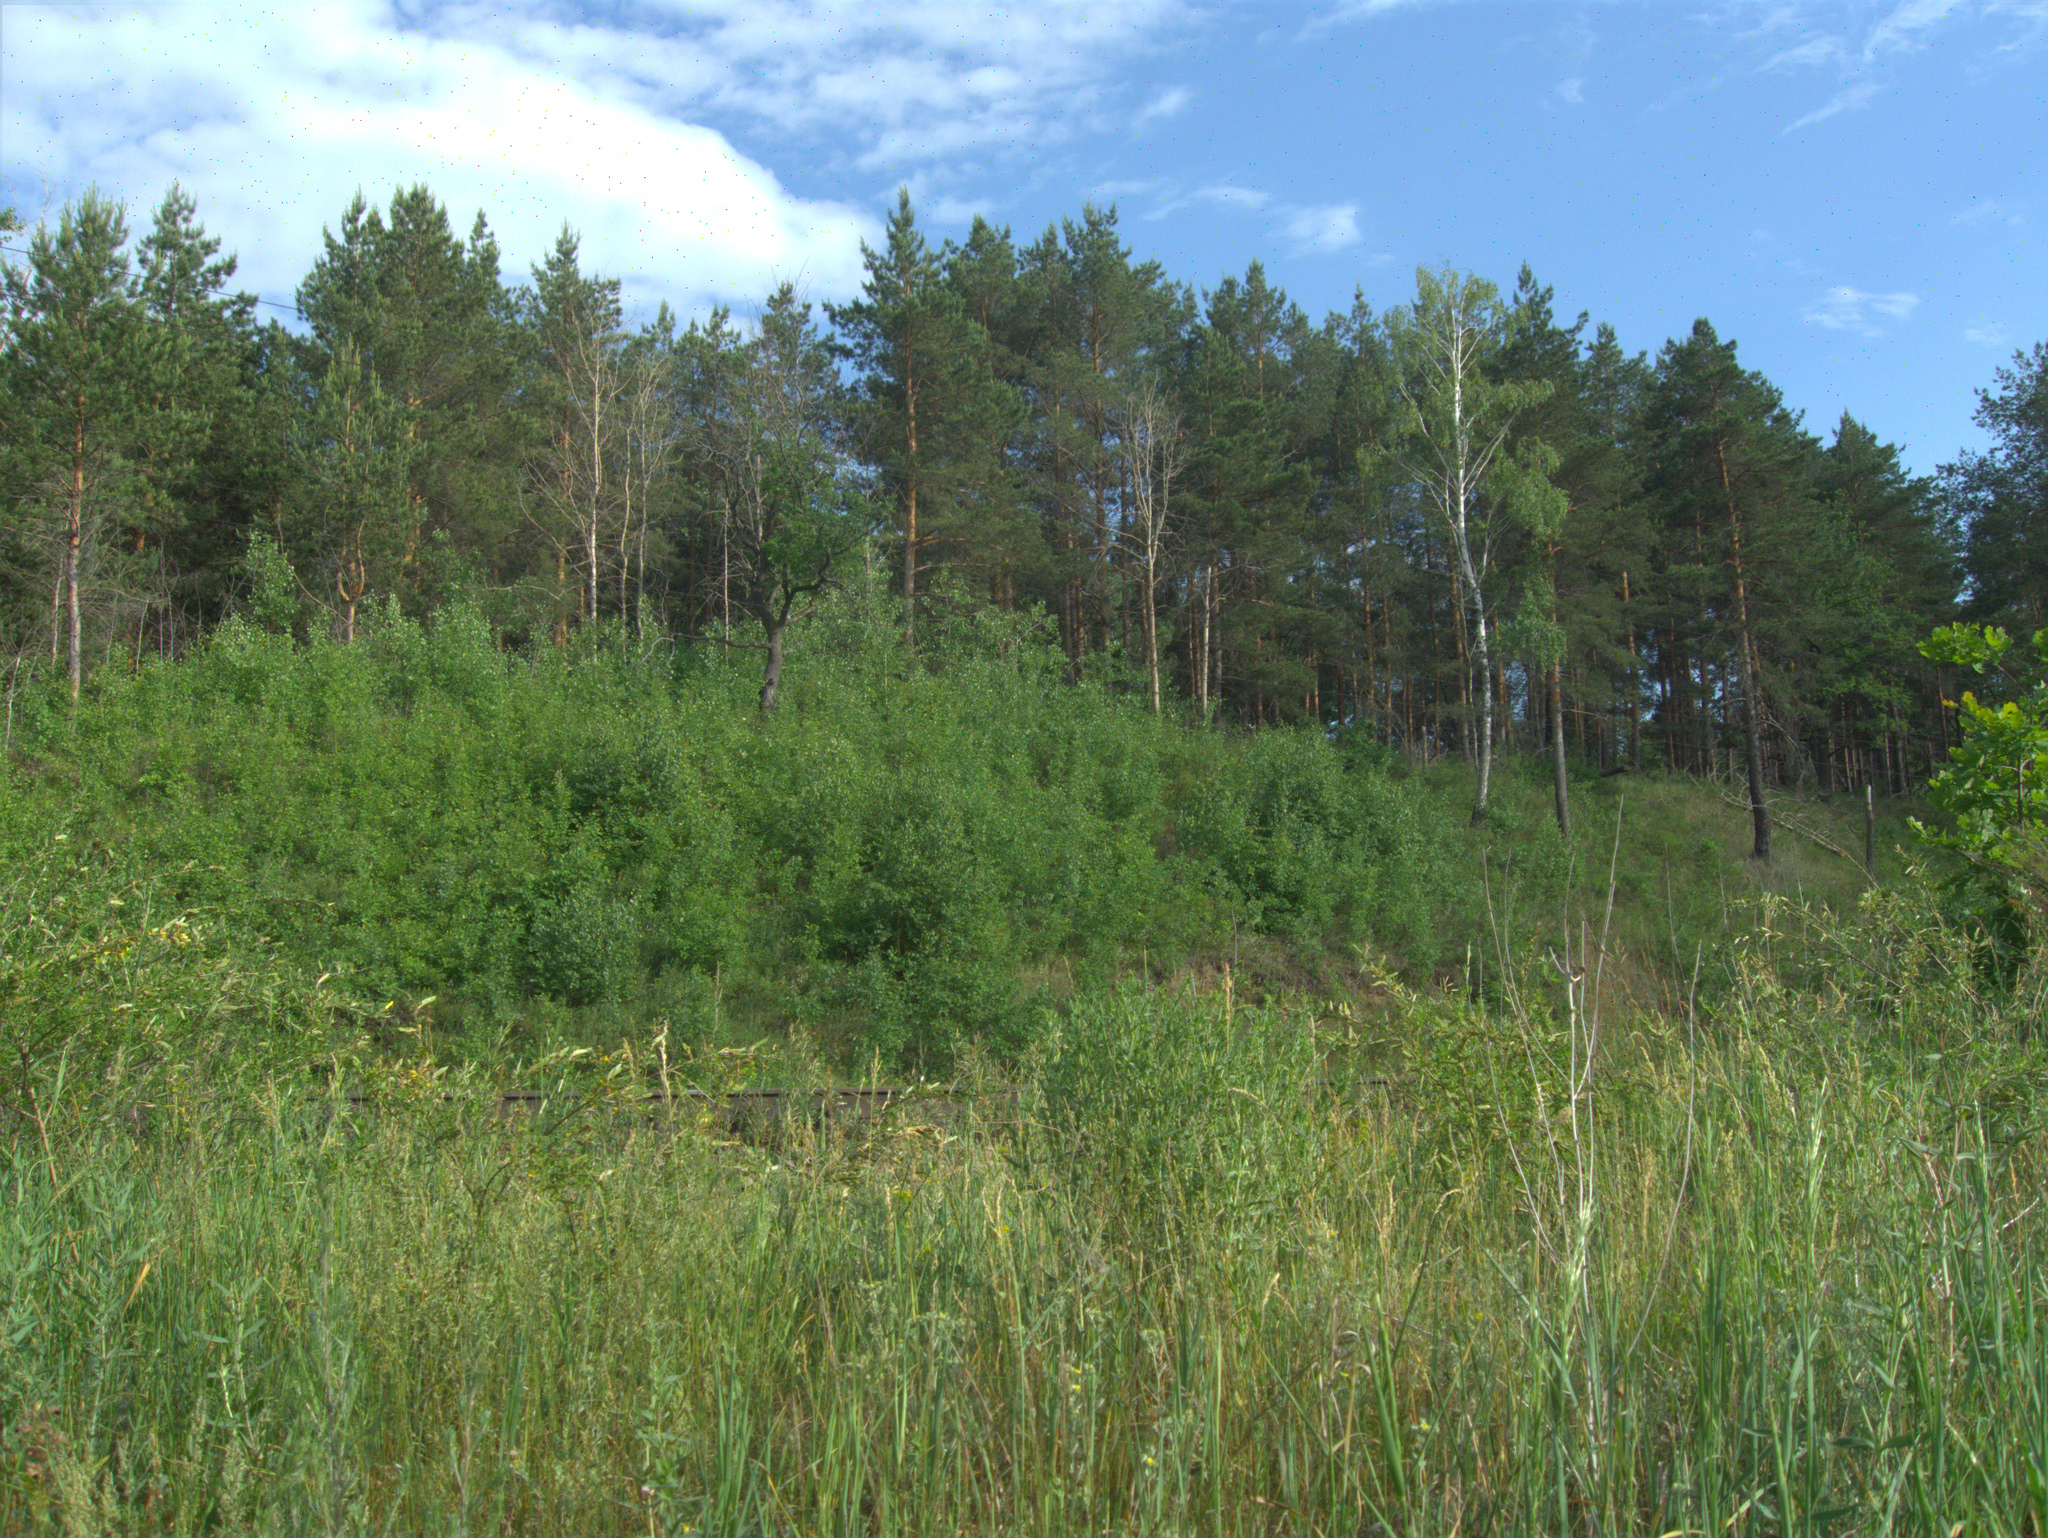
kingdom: Plantae
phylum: Tracheophyta
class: Magnoliopsida
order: Fagales
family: Fagaceae
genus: Quercus
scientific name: Quercus robur
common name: Pedunculate oak
